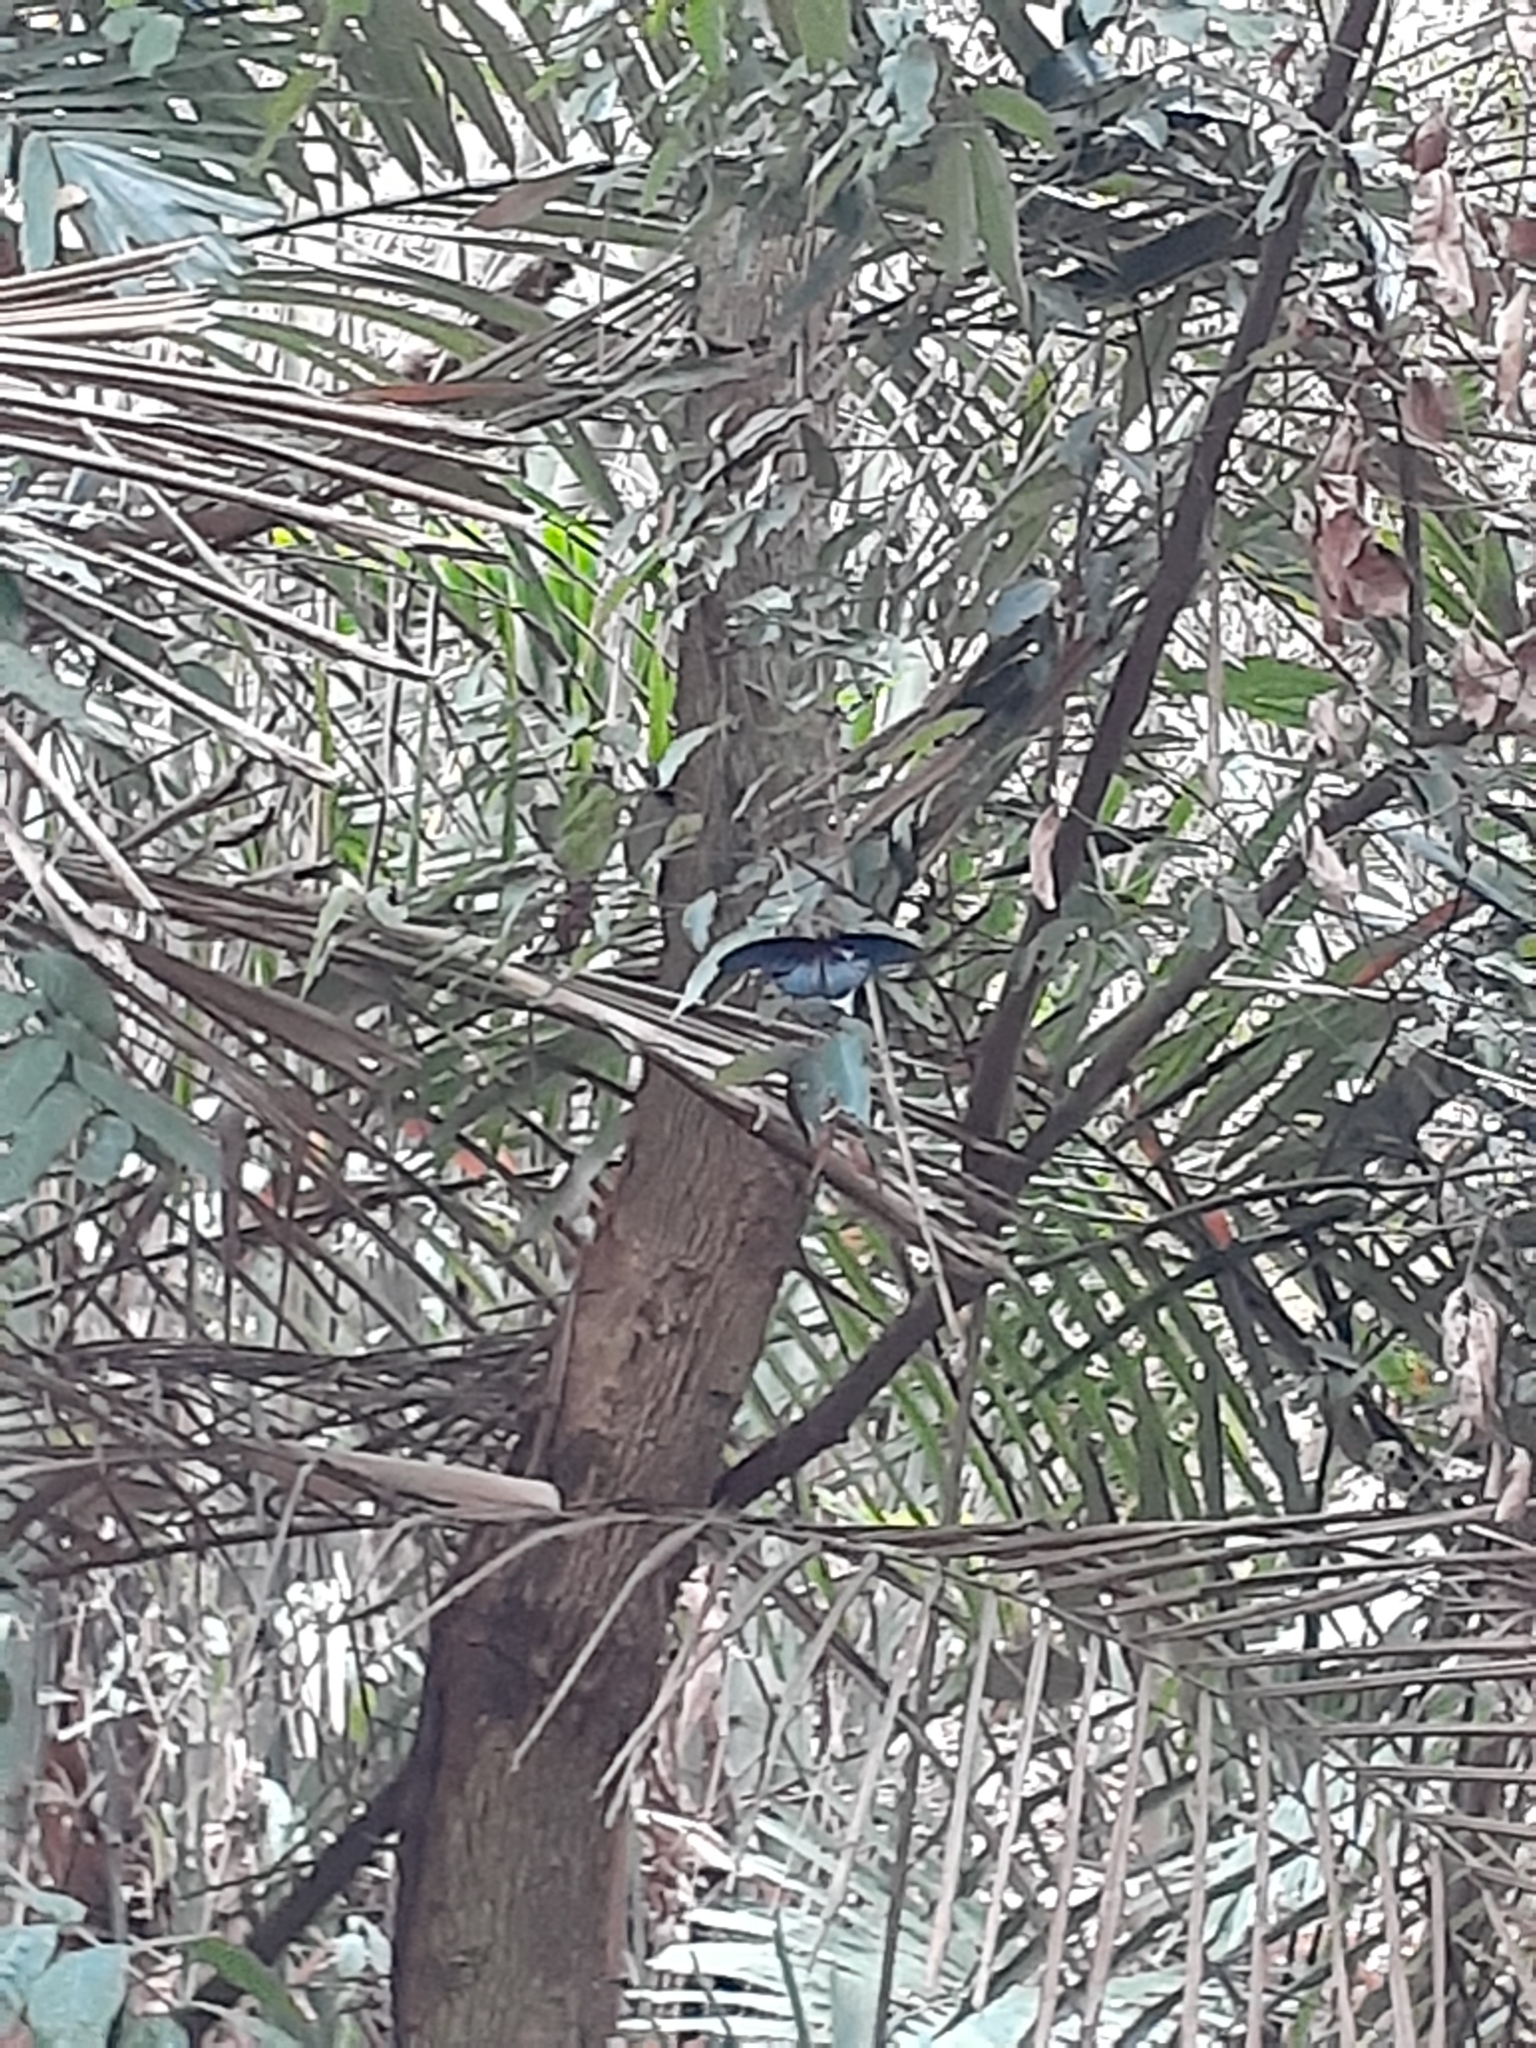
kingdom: Animalia
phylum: Arthropoda
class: Insecta
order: Lepidoptera
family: Papilionidae
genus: Papilio
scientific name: Papilio memnon
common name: Great mormon
